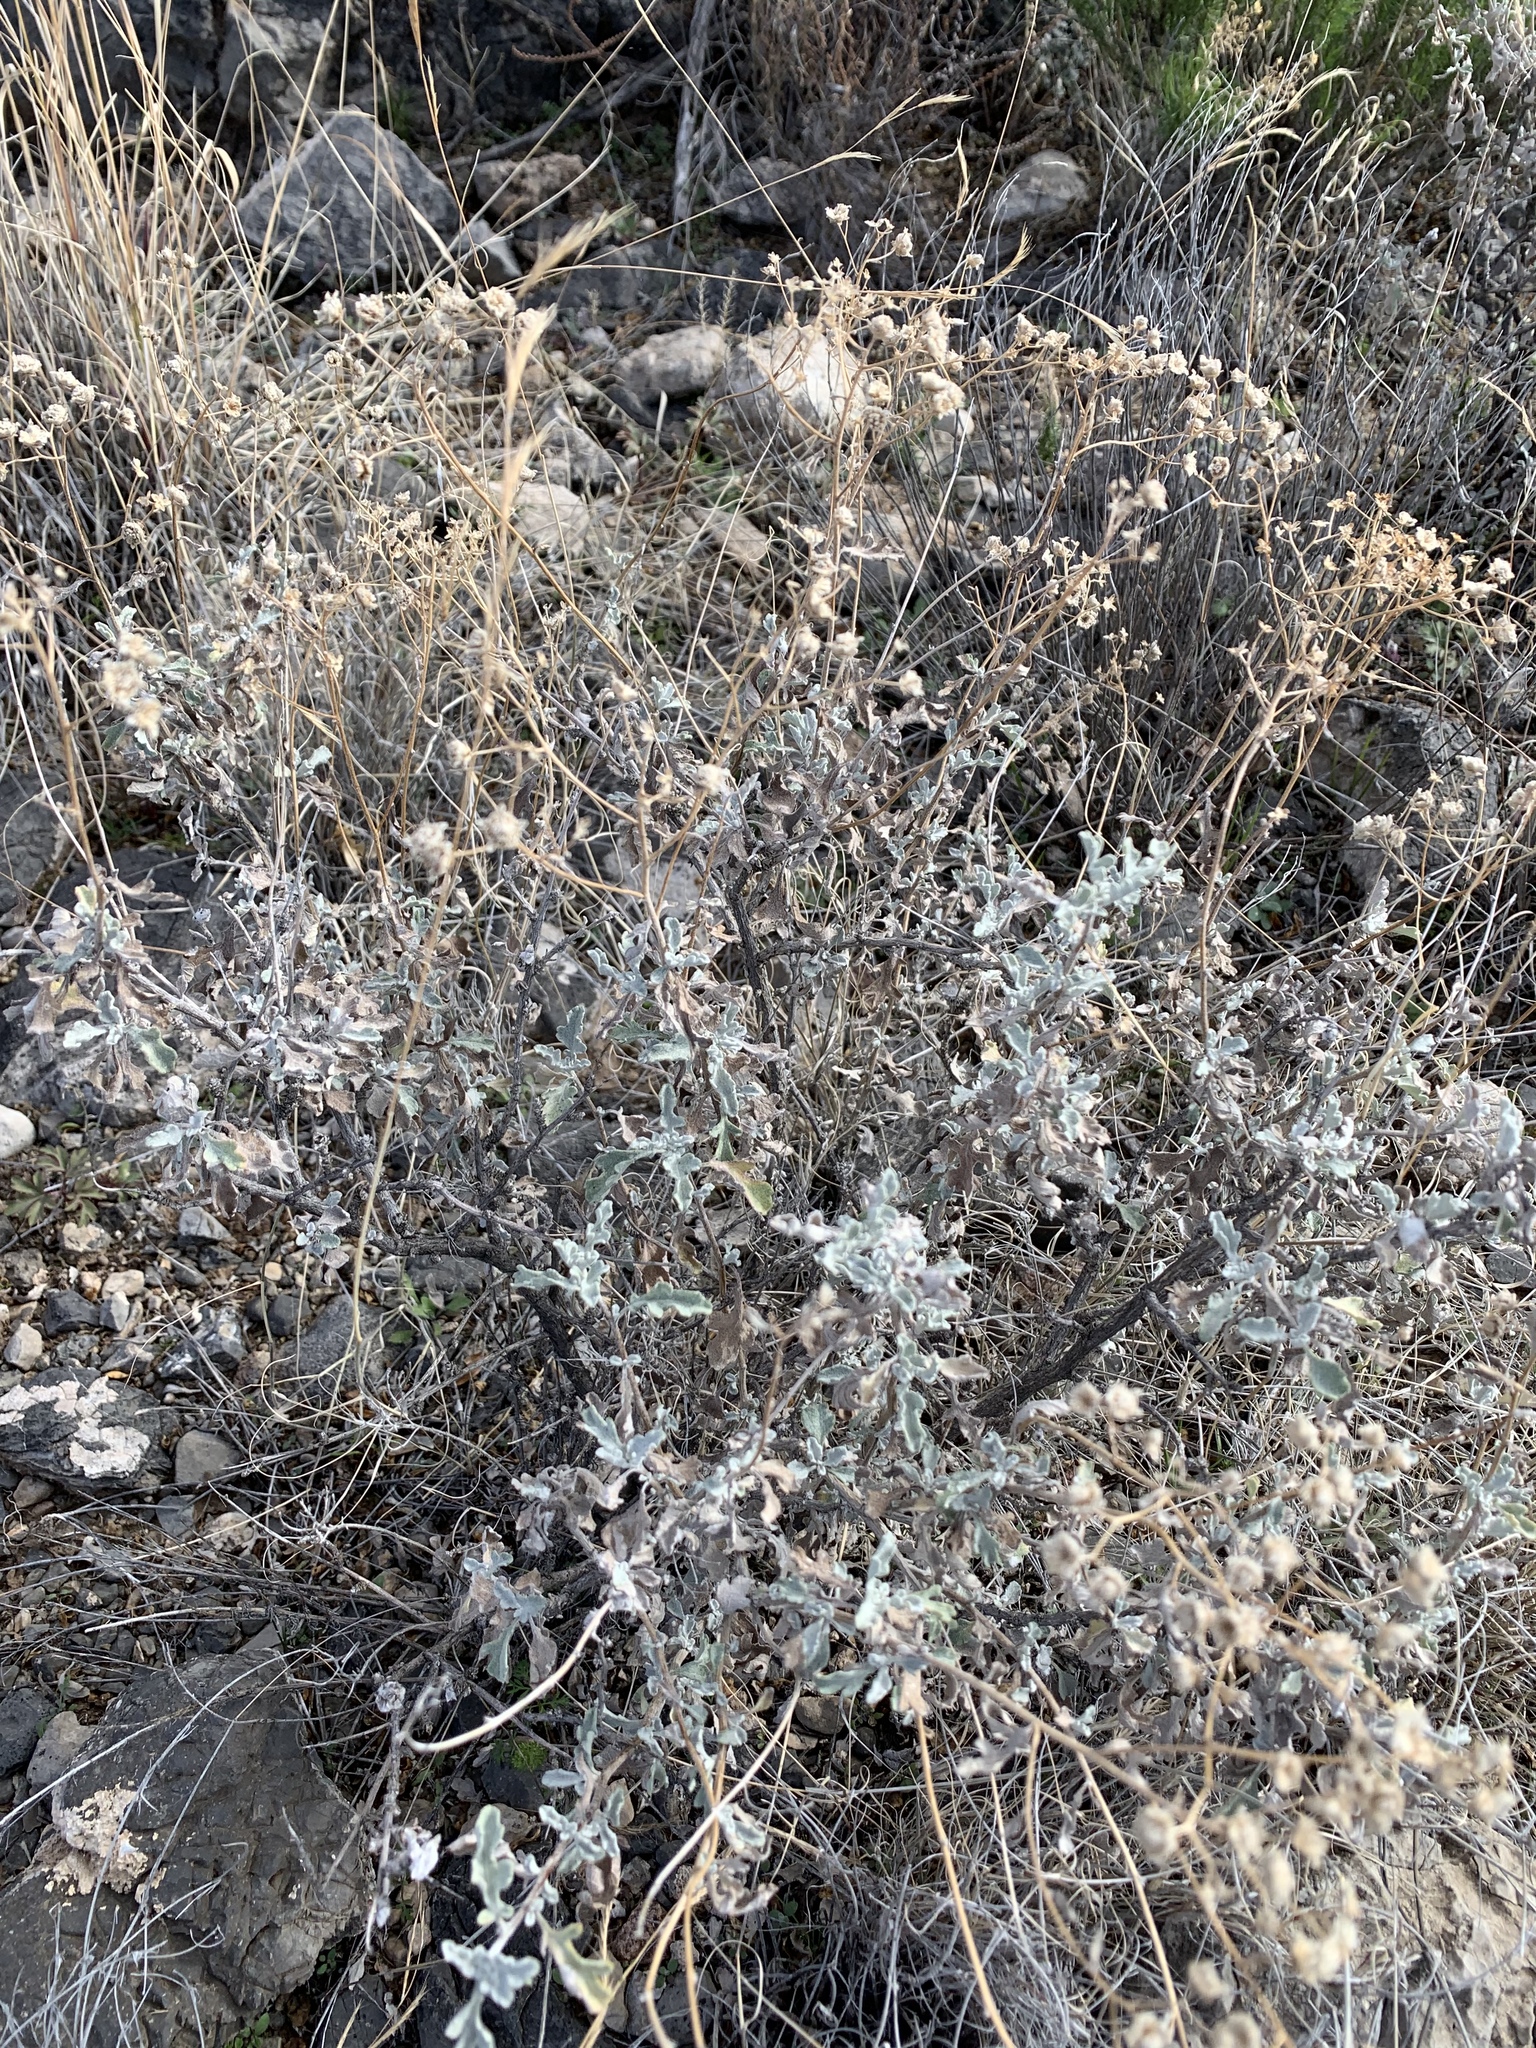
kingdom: Plantae
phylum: Tracheophyta
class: Magnoliopsida
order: Asterales
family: Asteraceae
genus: Parthenium
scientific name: Parthenium incanum
